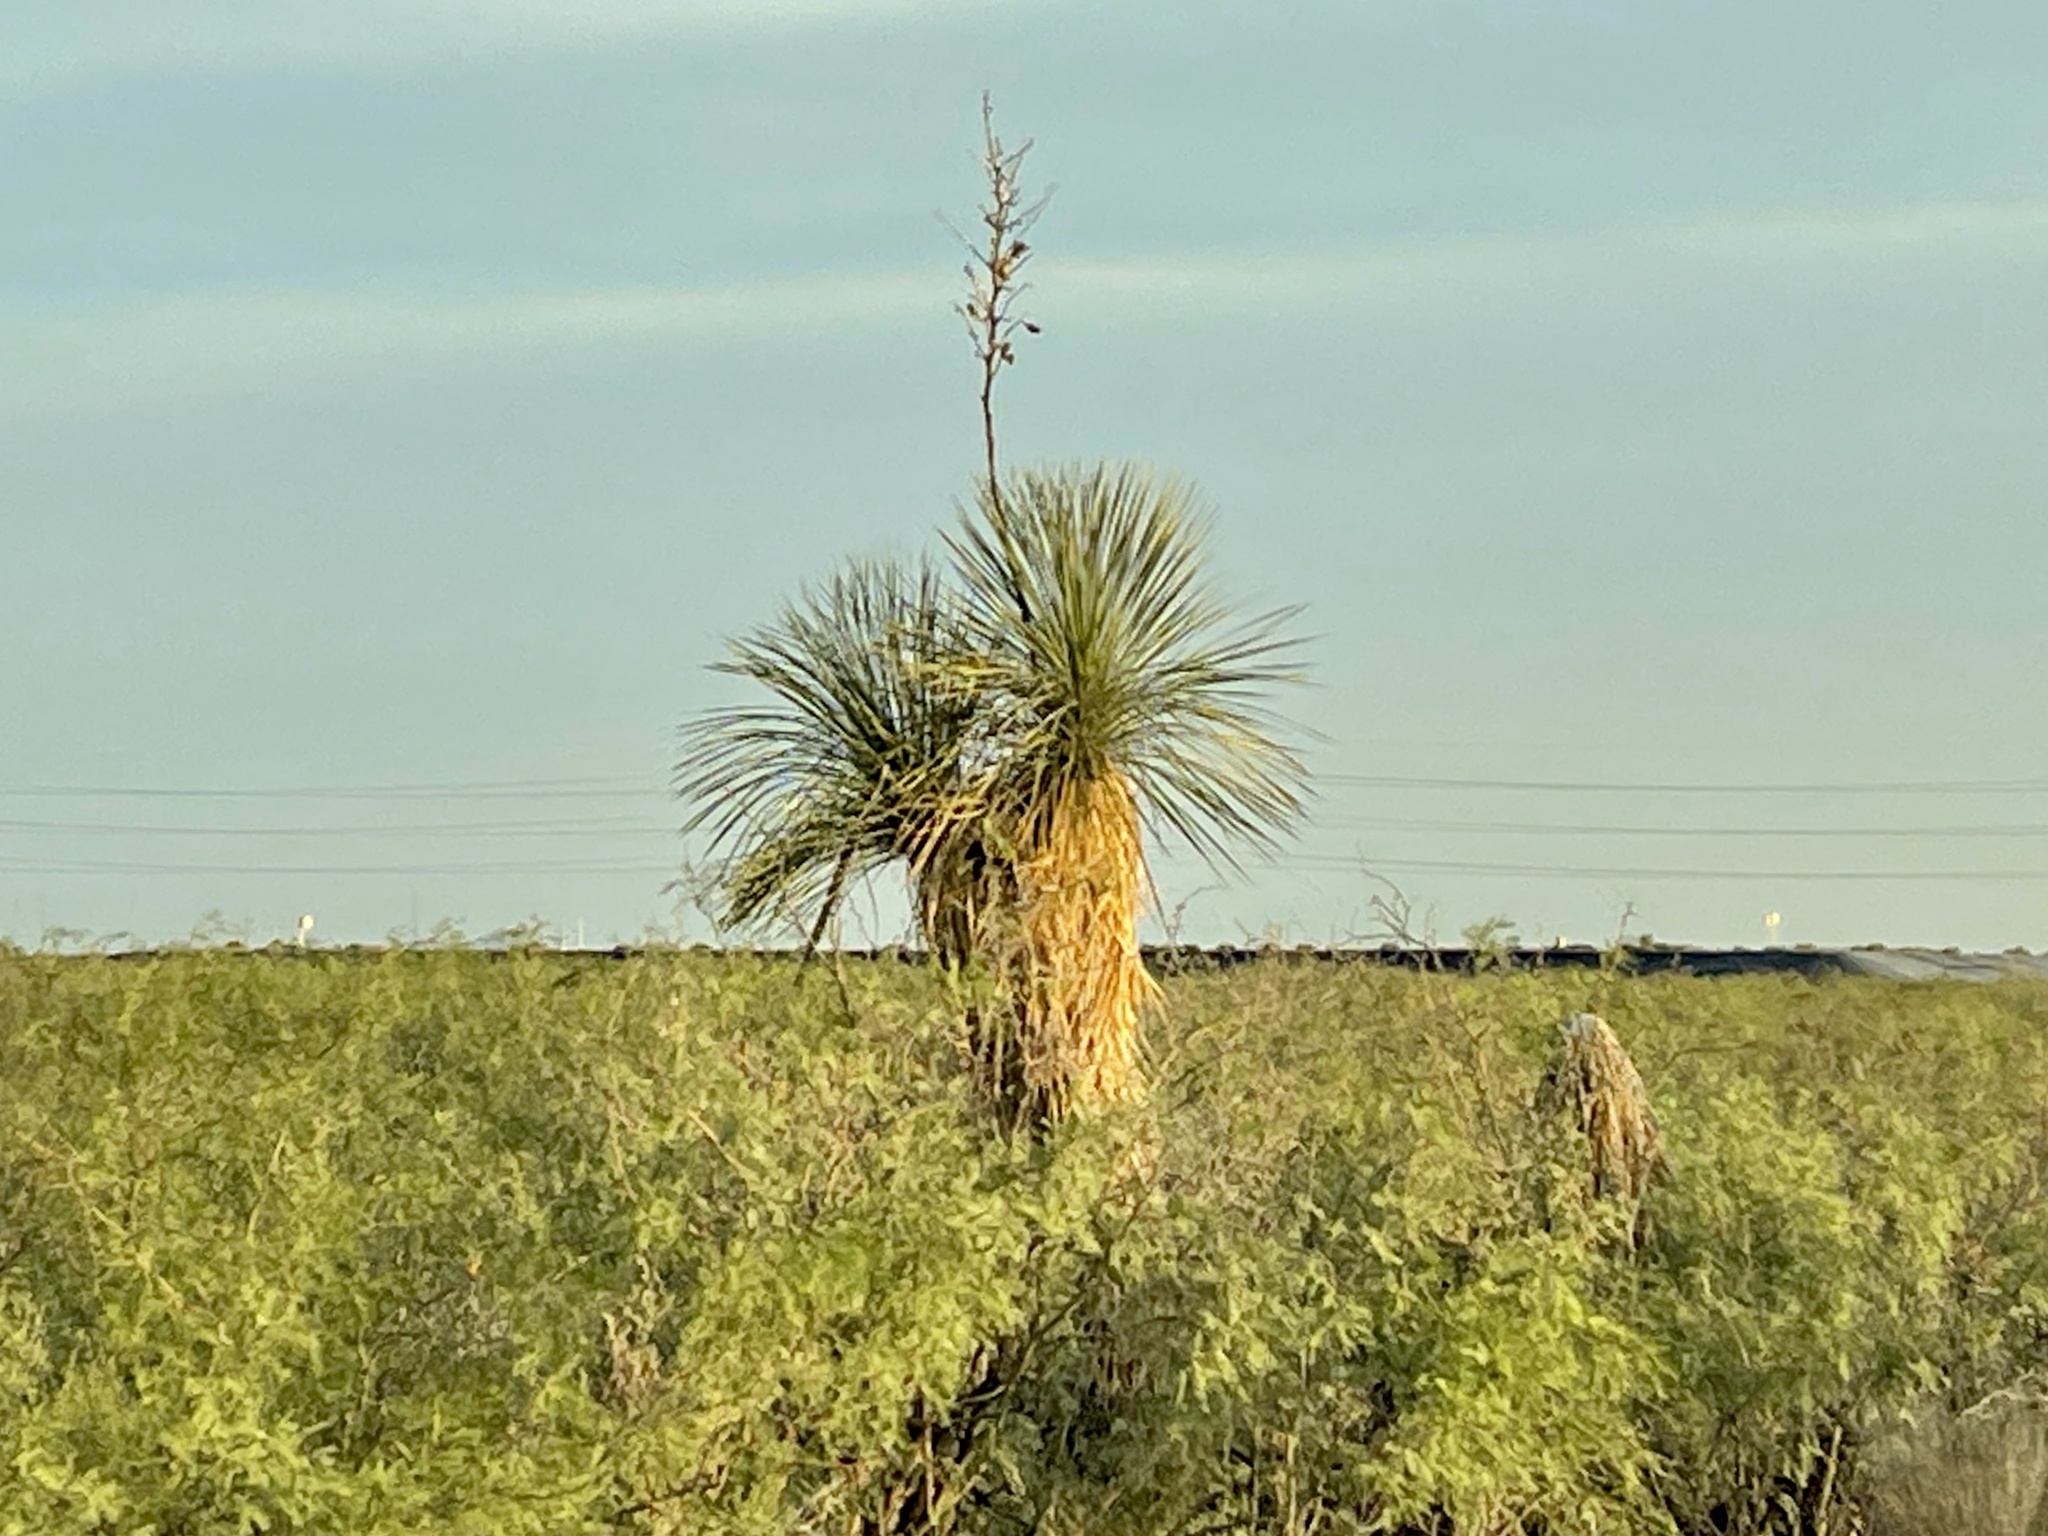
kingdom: Plantae
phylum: Tracheophyta
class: Liliopsida
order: Asparagales
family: Asparagaceae
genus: Yucca
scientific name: Yucca elata
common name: Palmella
